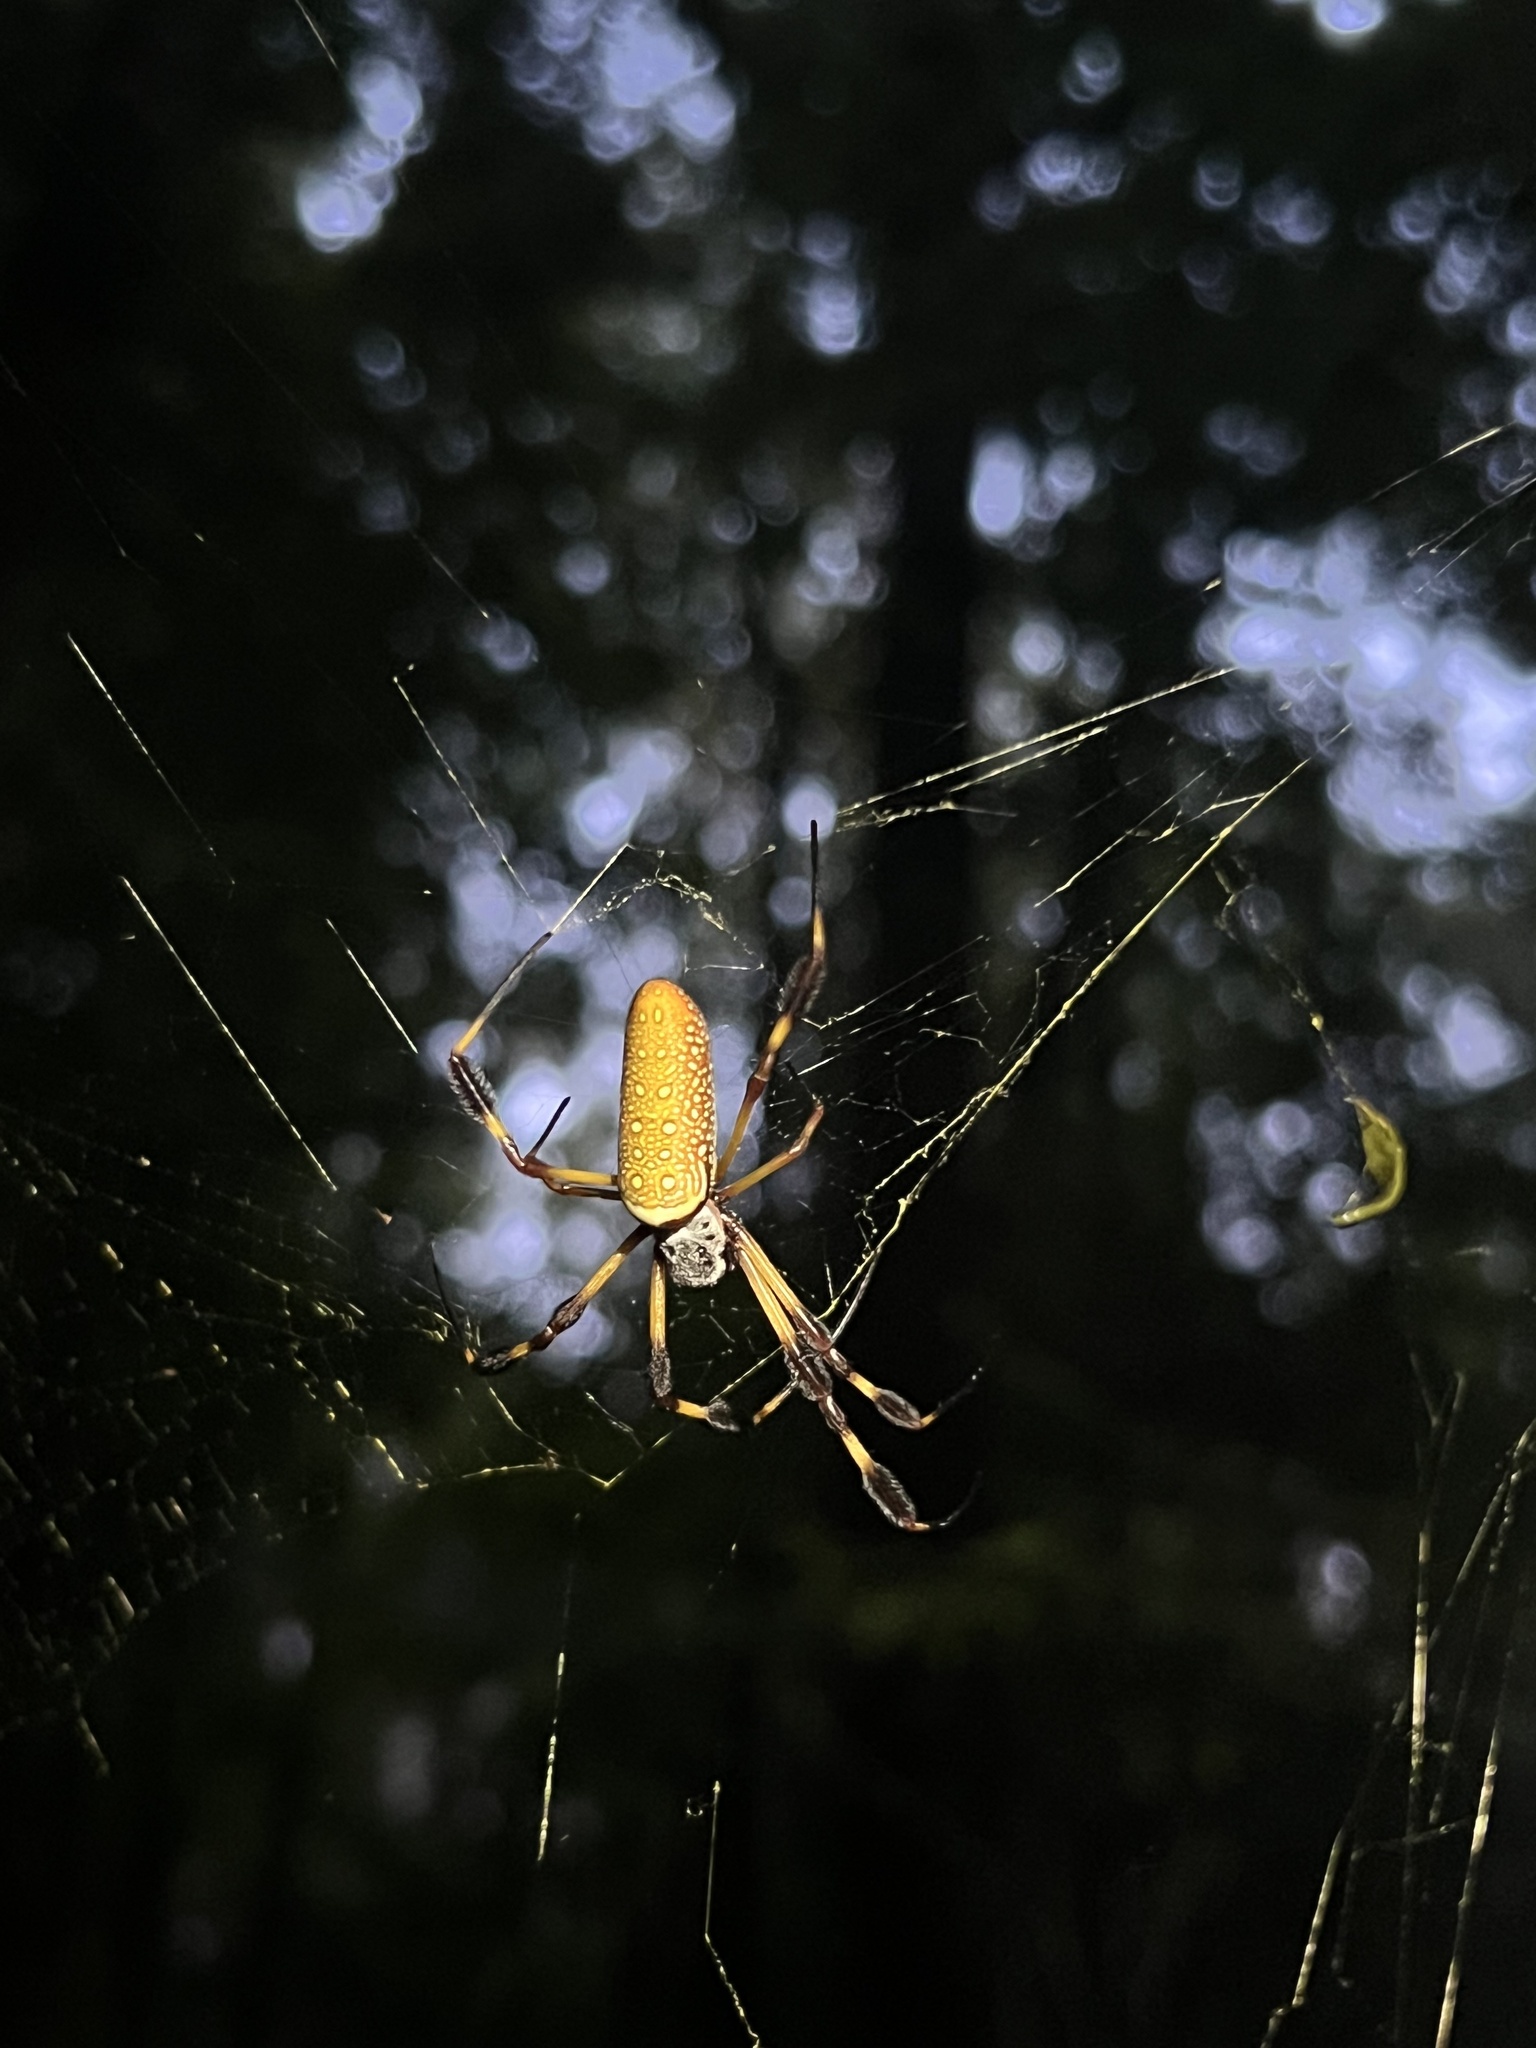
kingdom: Animalia
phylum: Arthropoda
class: Arachnida
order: Araneae
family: Araneidae
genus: Trichonephila
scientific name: Trichonephila clavipes
